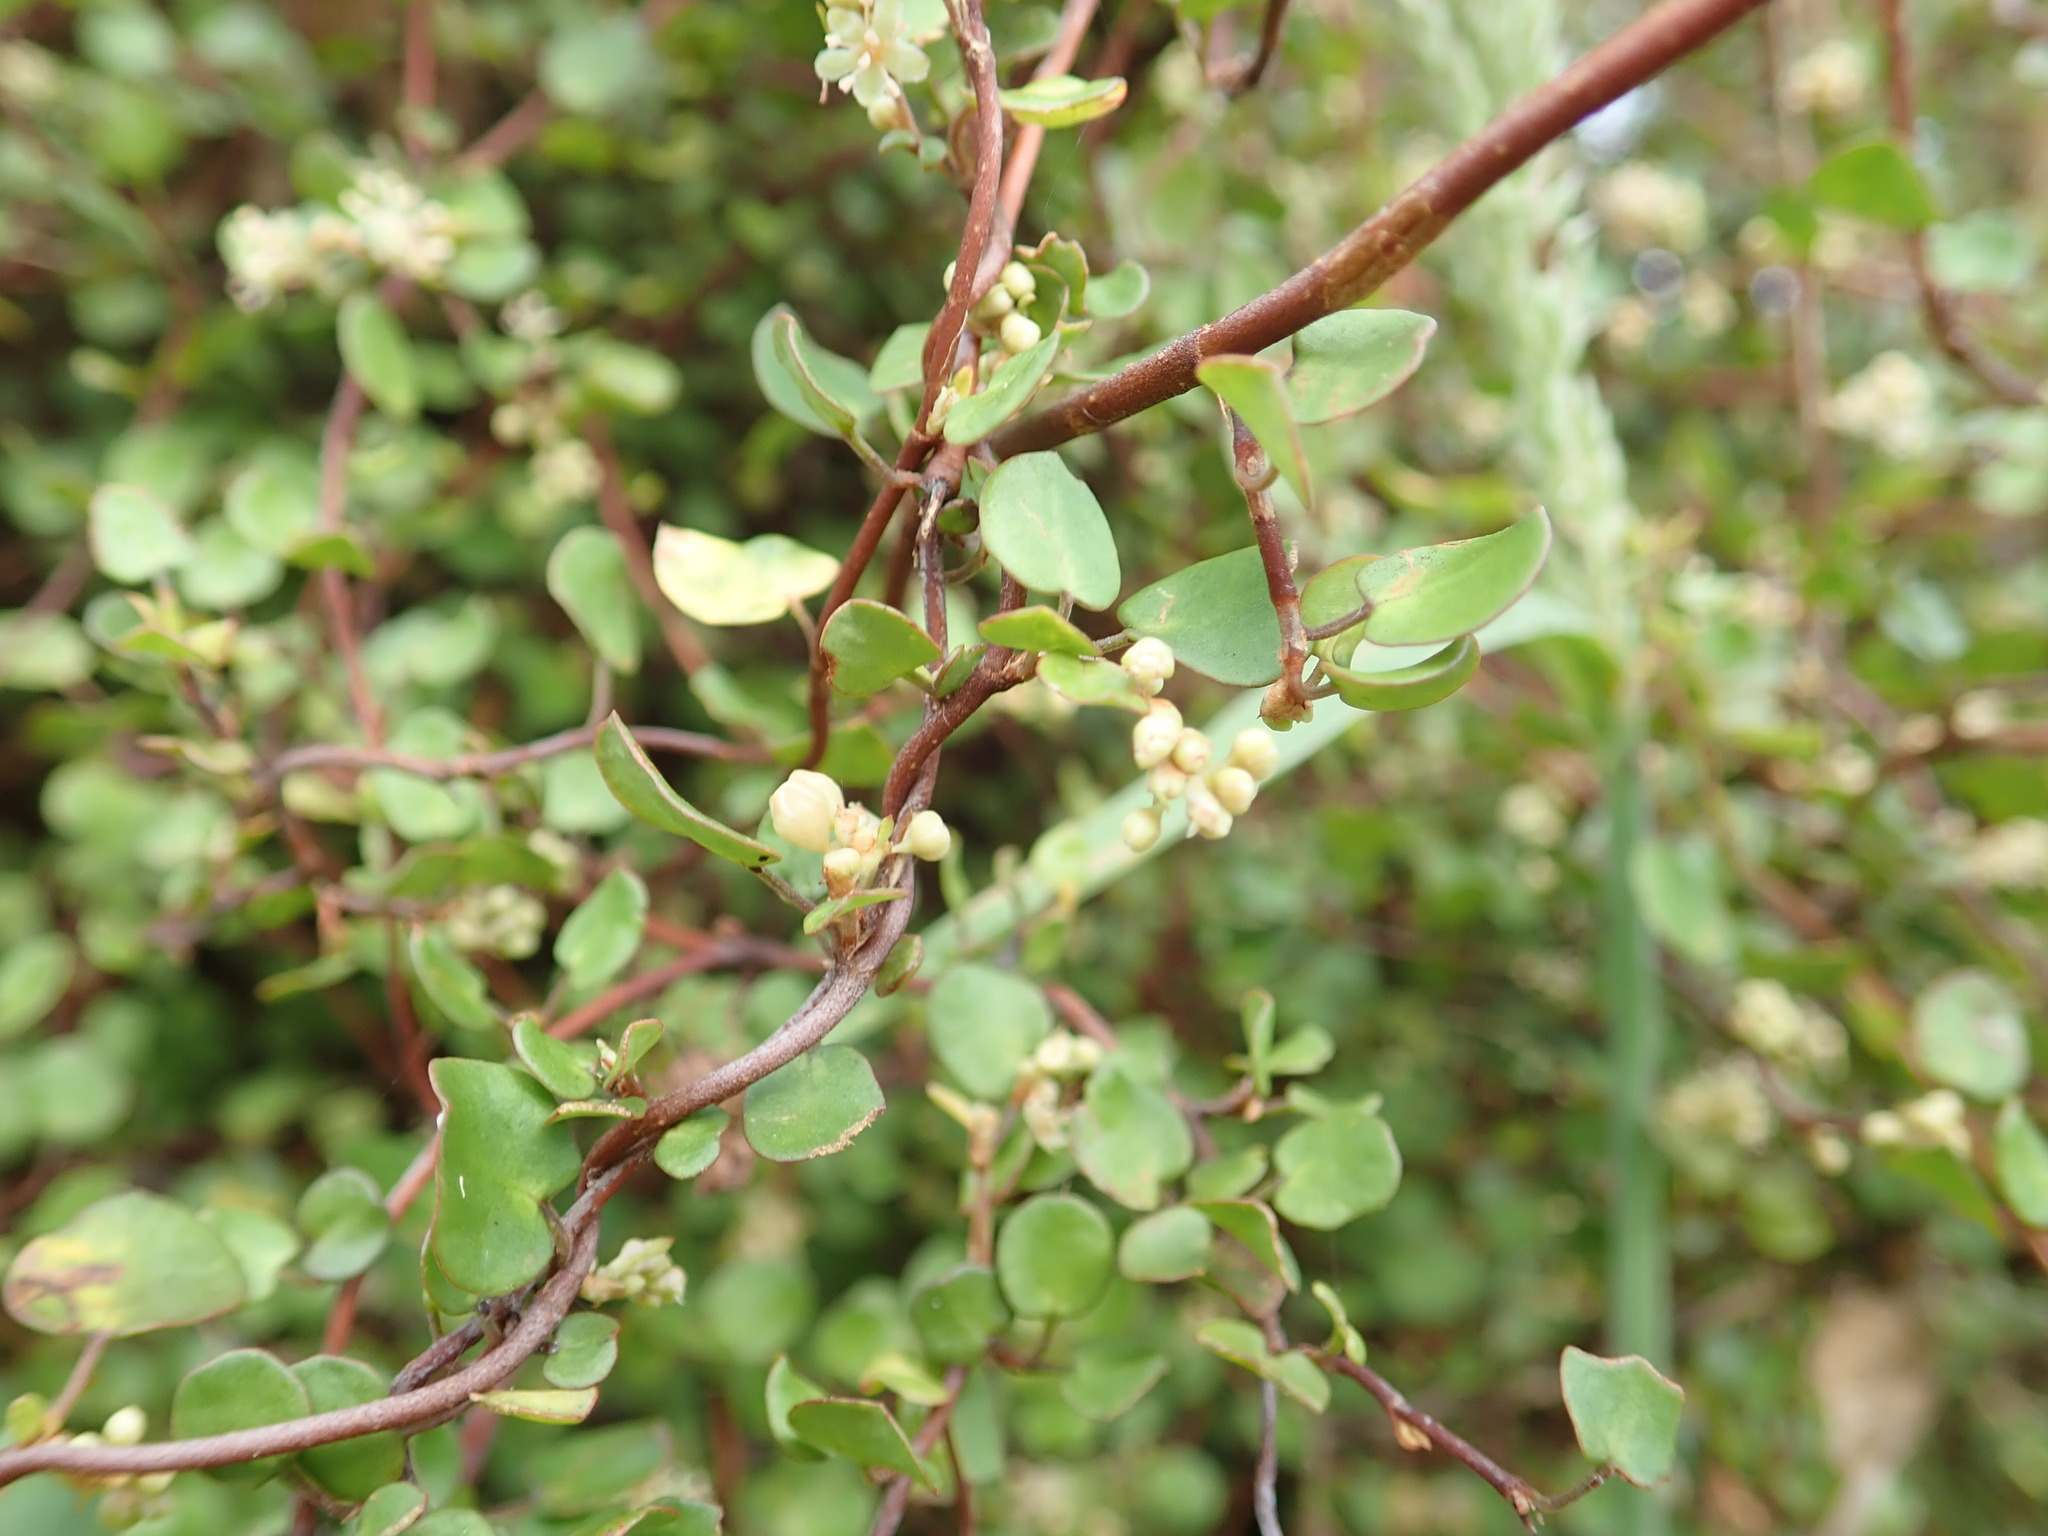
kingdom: Plantae
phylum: Tracheophyta
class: Magnoliopsida
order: Caryophyllales
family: Polygonaceae
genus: Muehlenbeckia
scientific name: Muehlenbeckia complexa
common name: Wireplant
